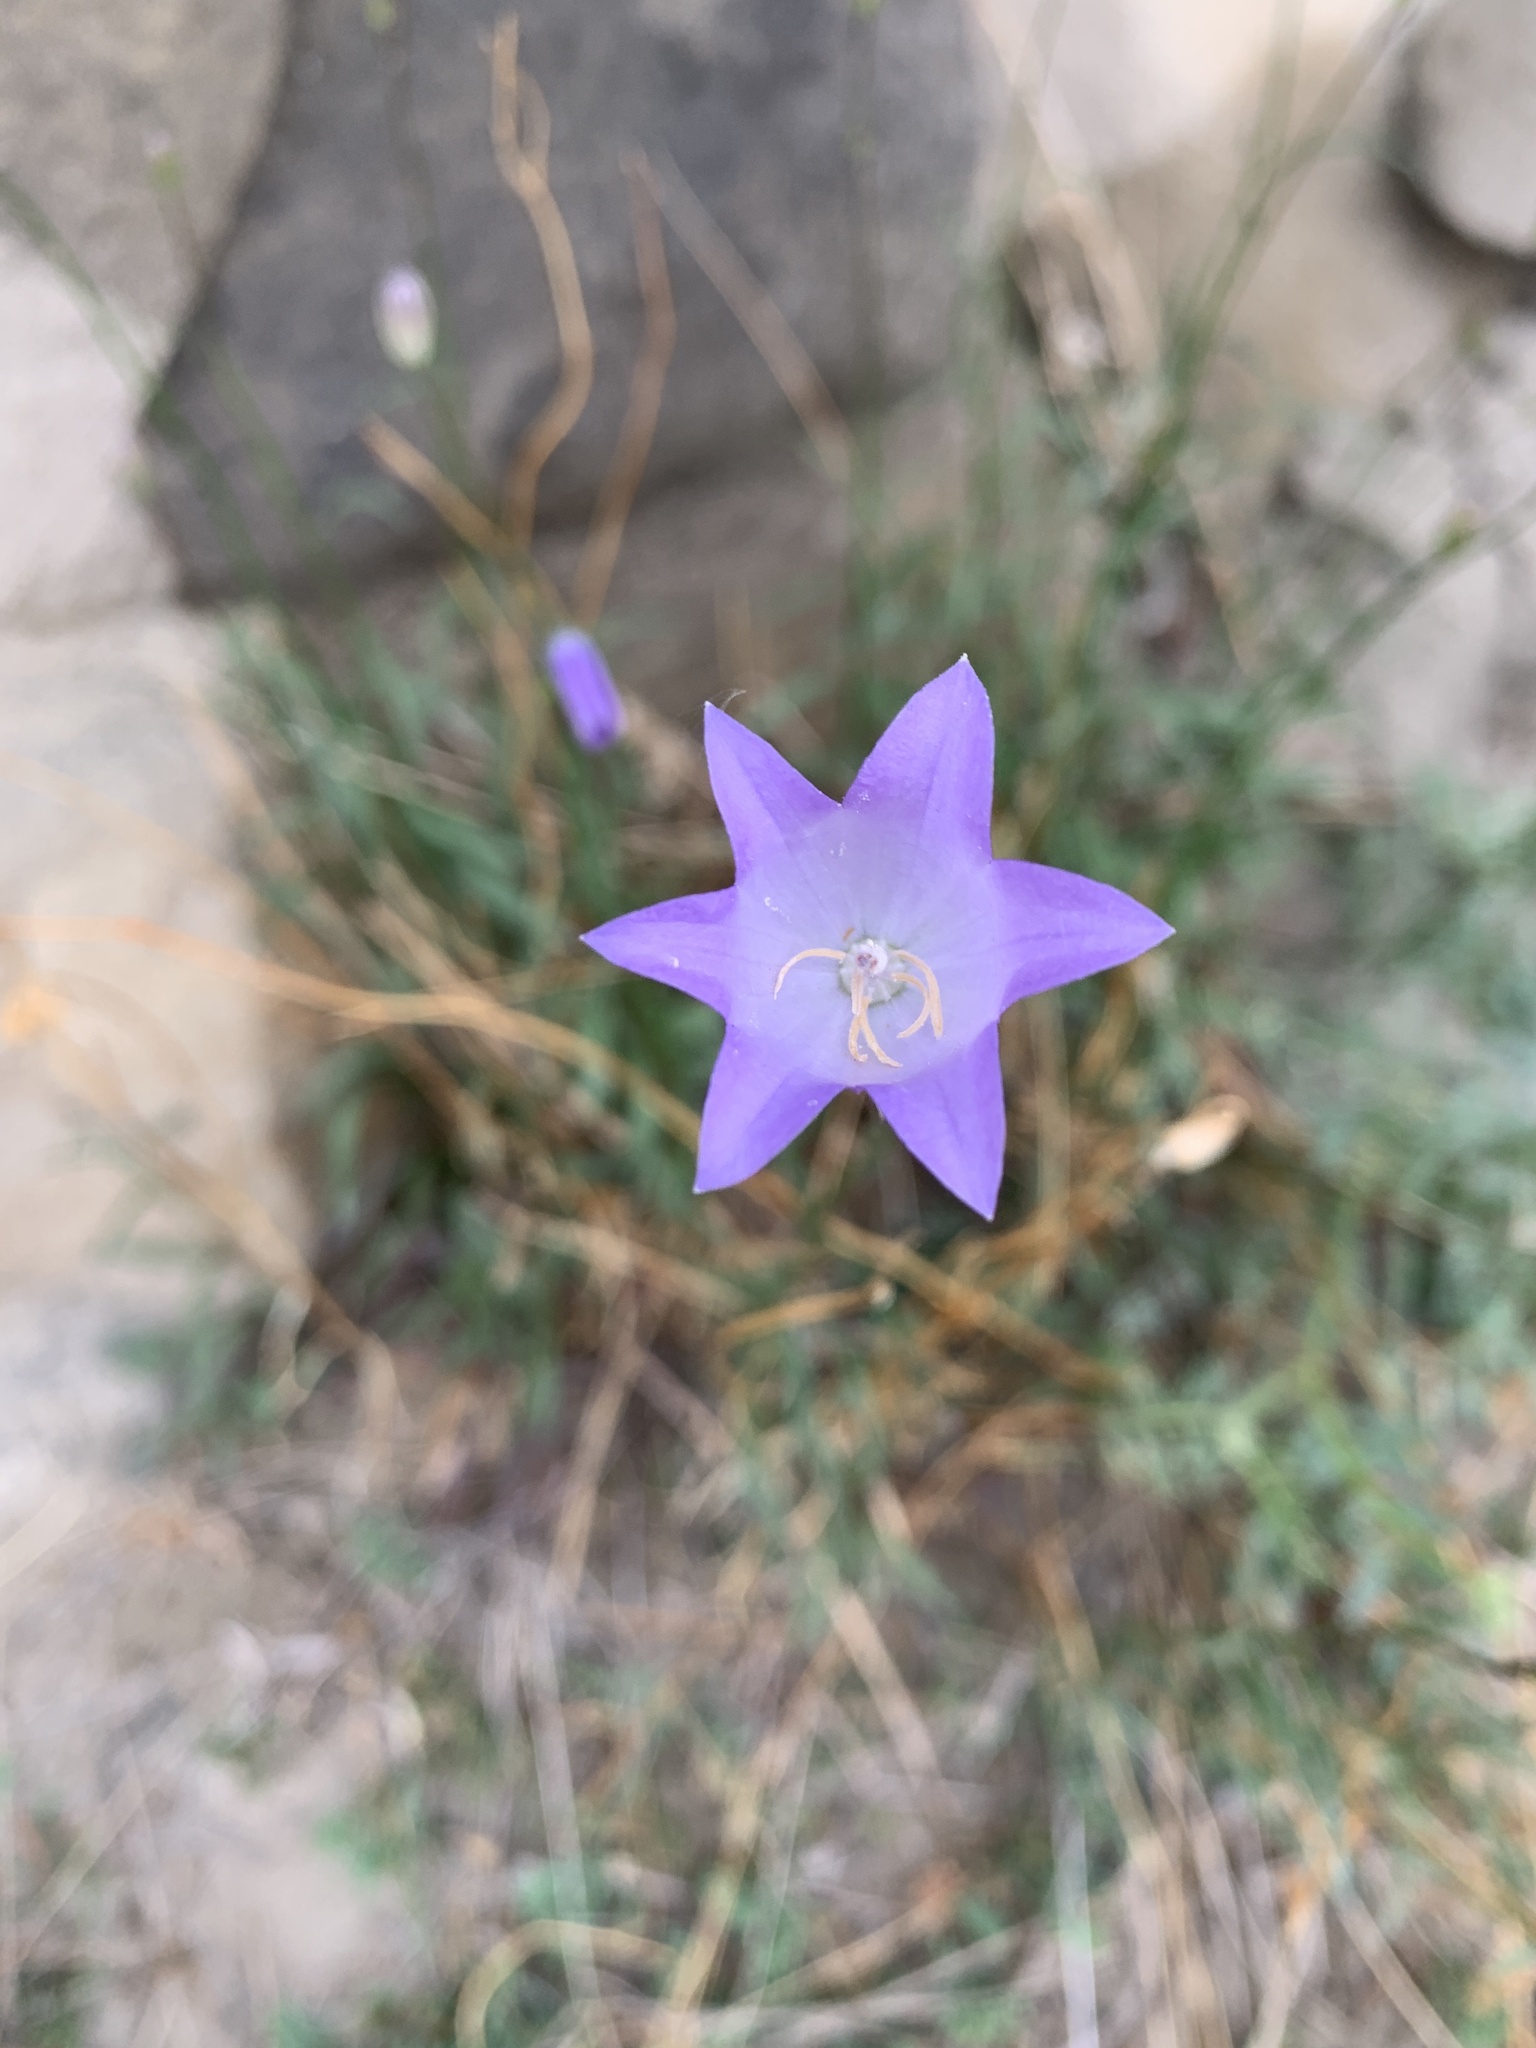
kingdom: Plantae
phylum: Tracheophyta
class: Magnoliopsida
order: Asterales
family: Campanulaceae
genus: Campanula
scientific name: Campanula alaskana
